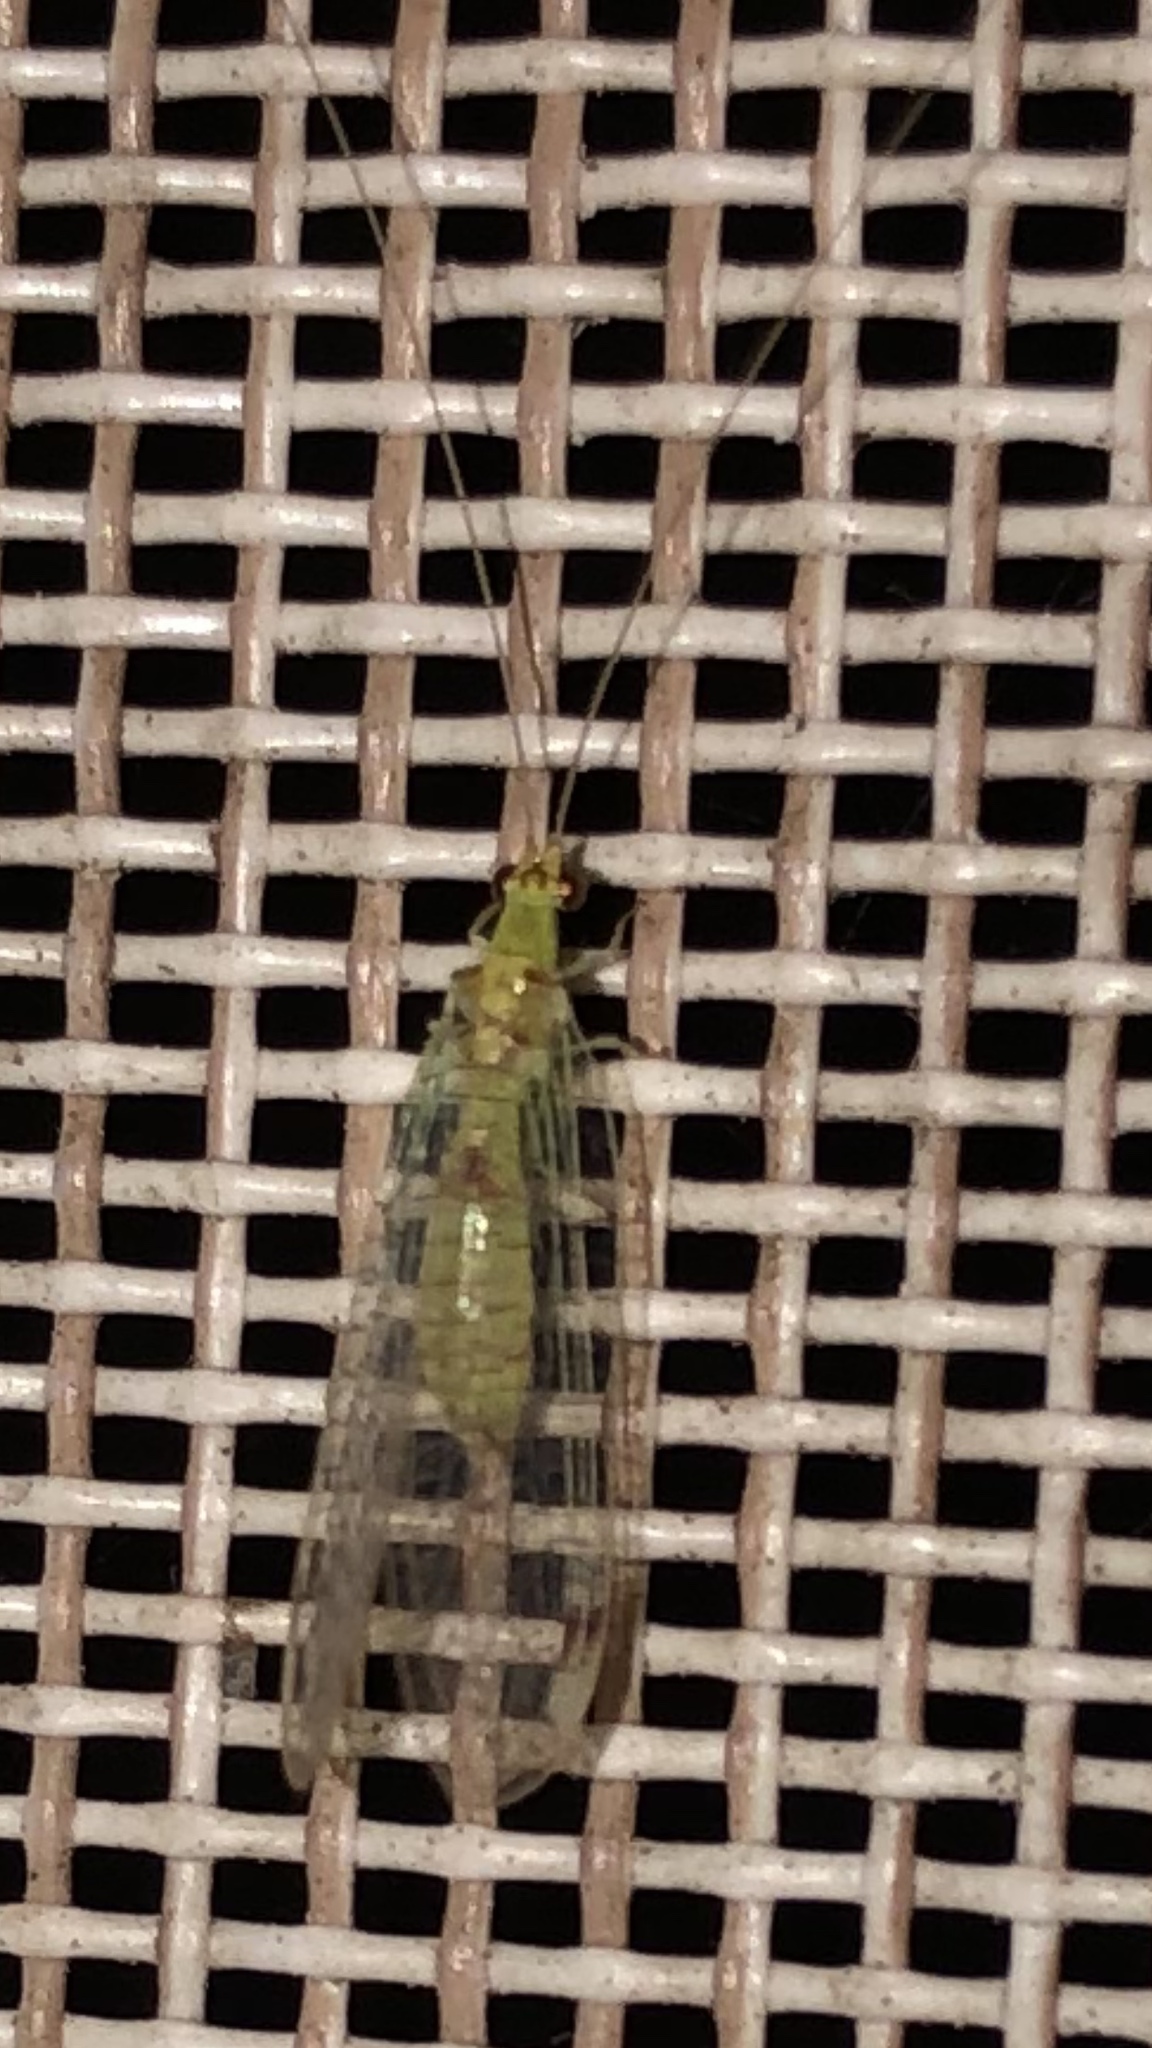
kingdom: Animalia
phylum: Arthropoda
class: Insecta
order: Neuroptera
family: Chrysopidae
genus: Leucochrysa
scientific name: Leucochrysa americana
